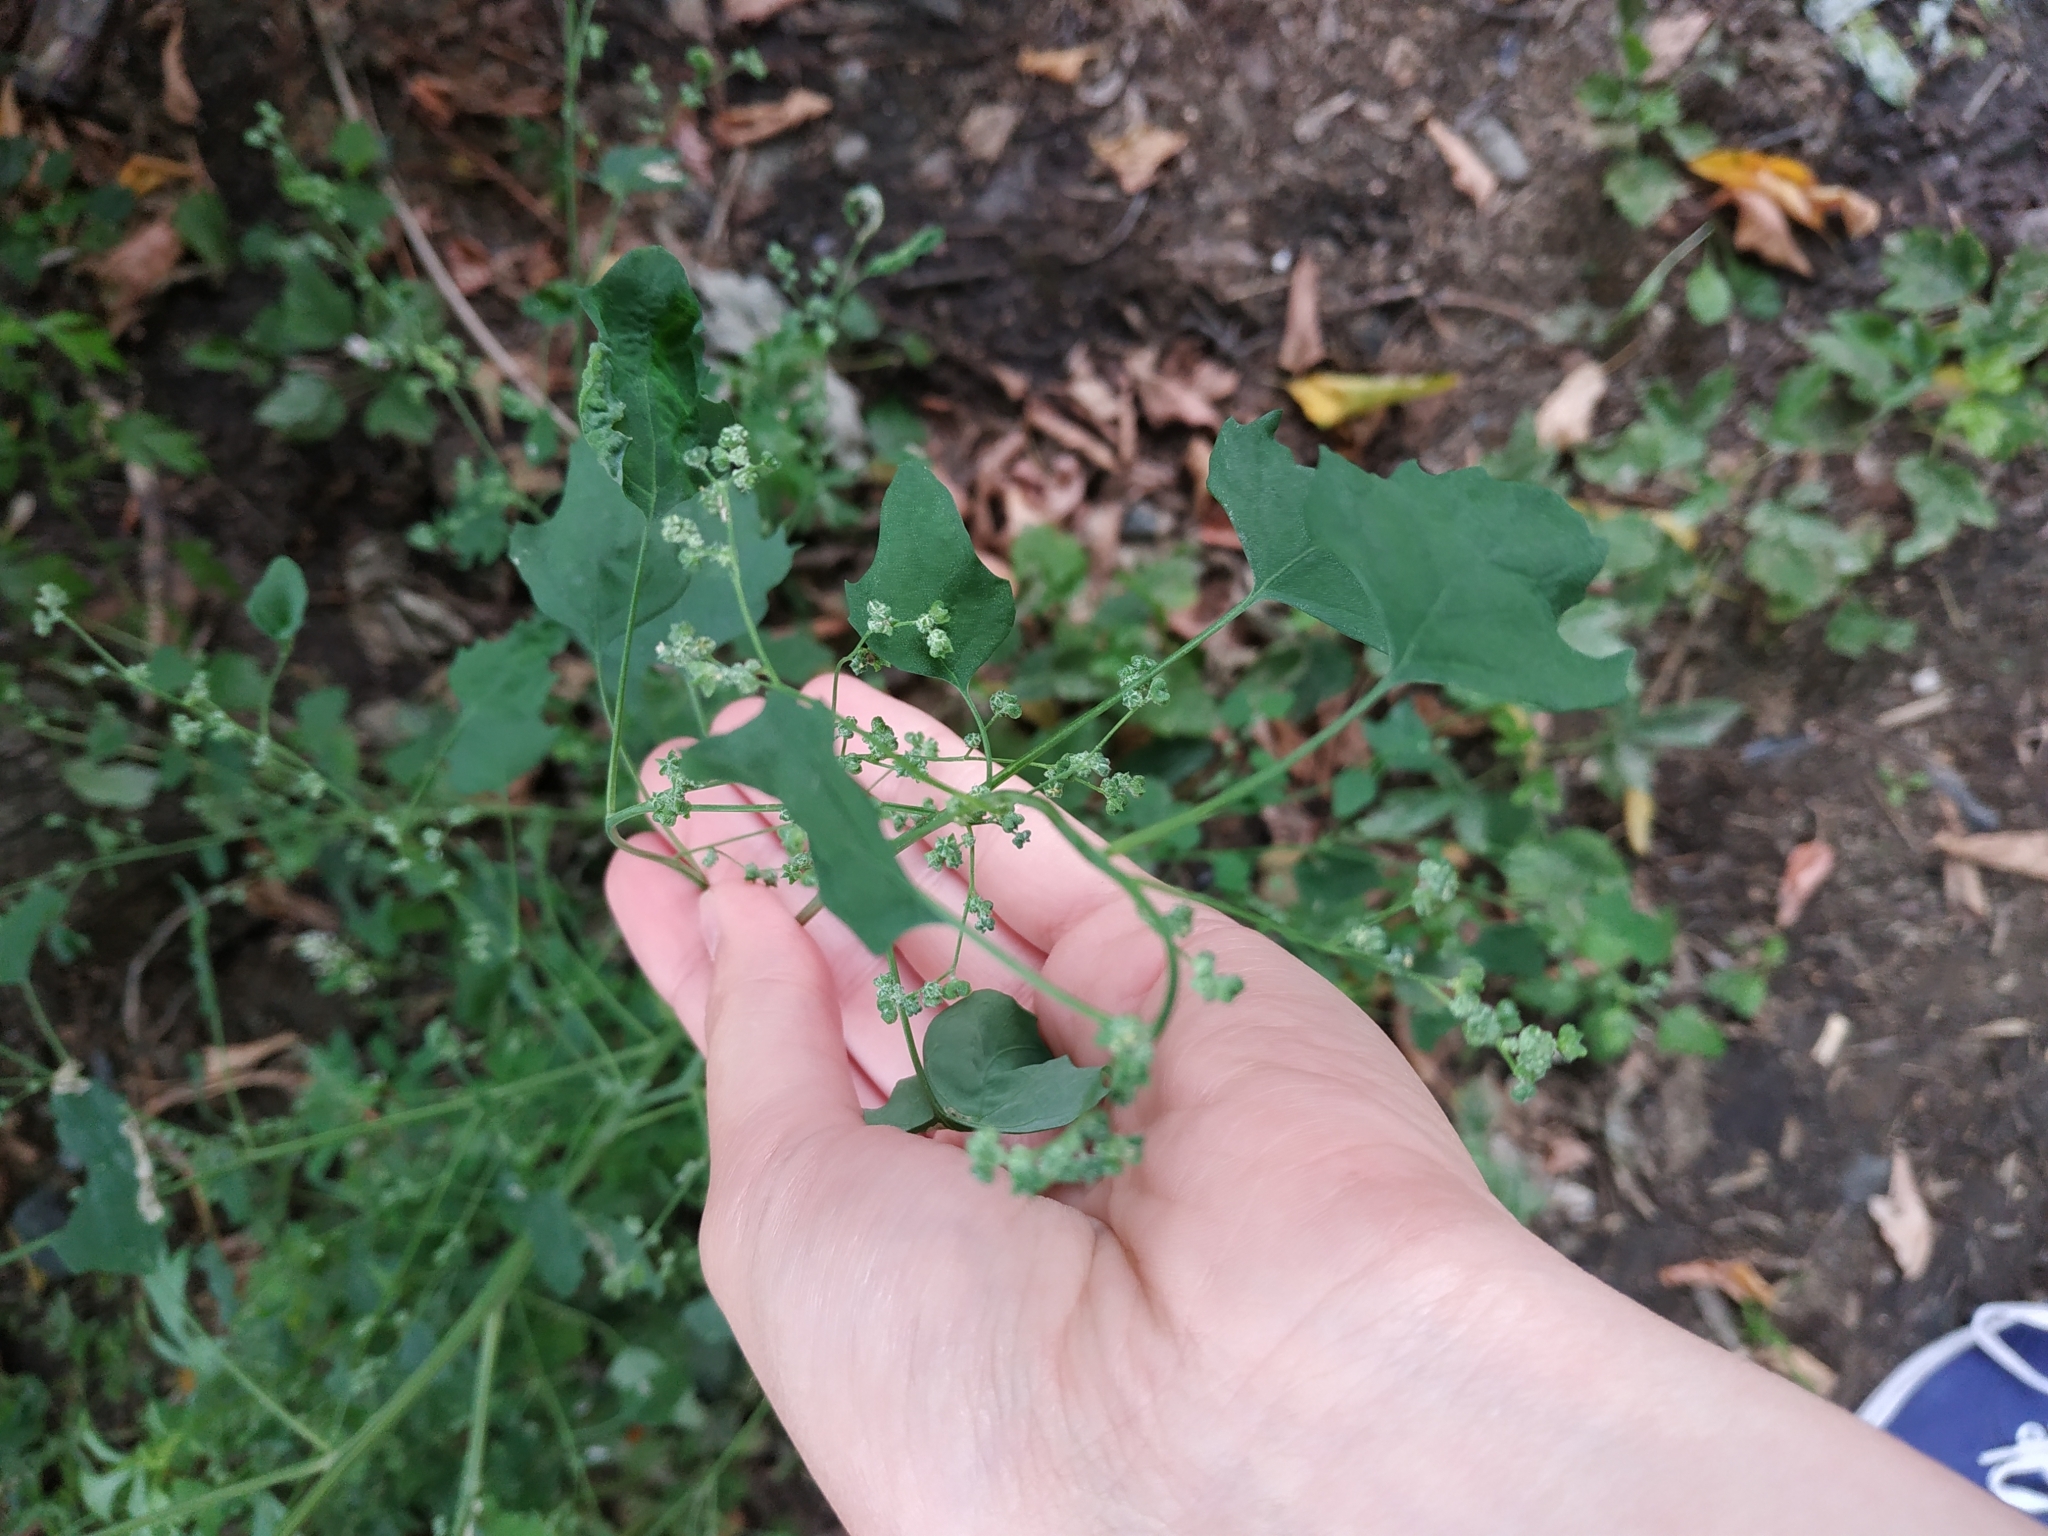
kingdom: Plantae
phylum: Tracheophyta
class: Magnoliopsida
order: Caryophyllales
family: Amaranthaceae
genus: Chenopodium
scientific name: Chenopodium album
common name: Fat-hen
